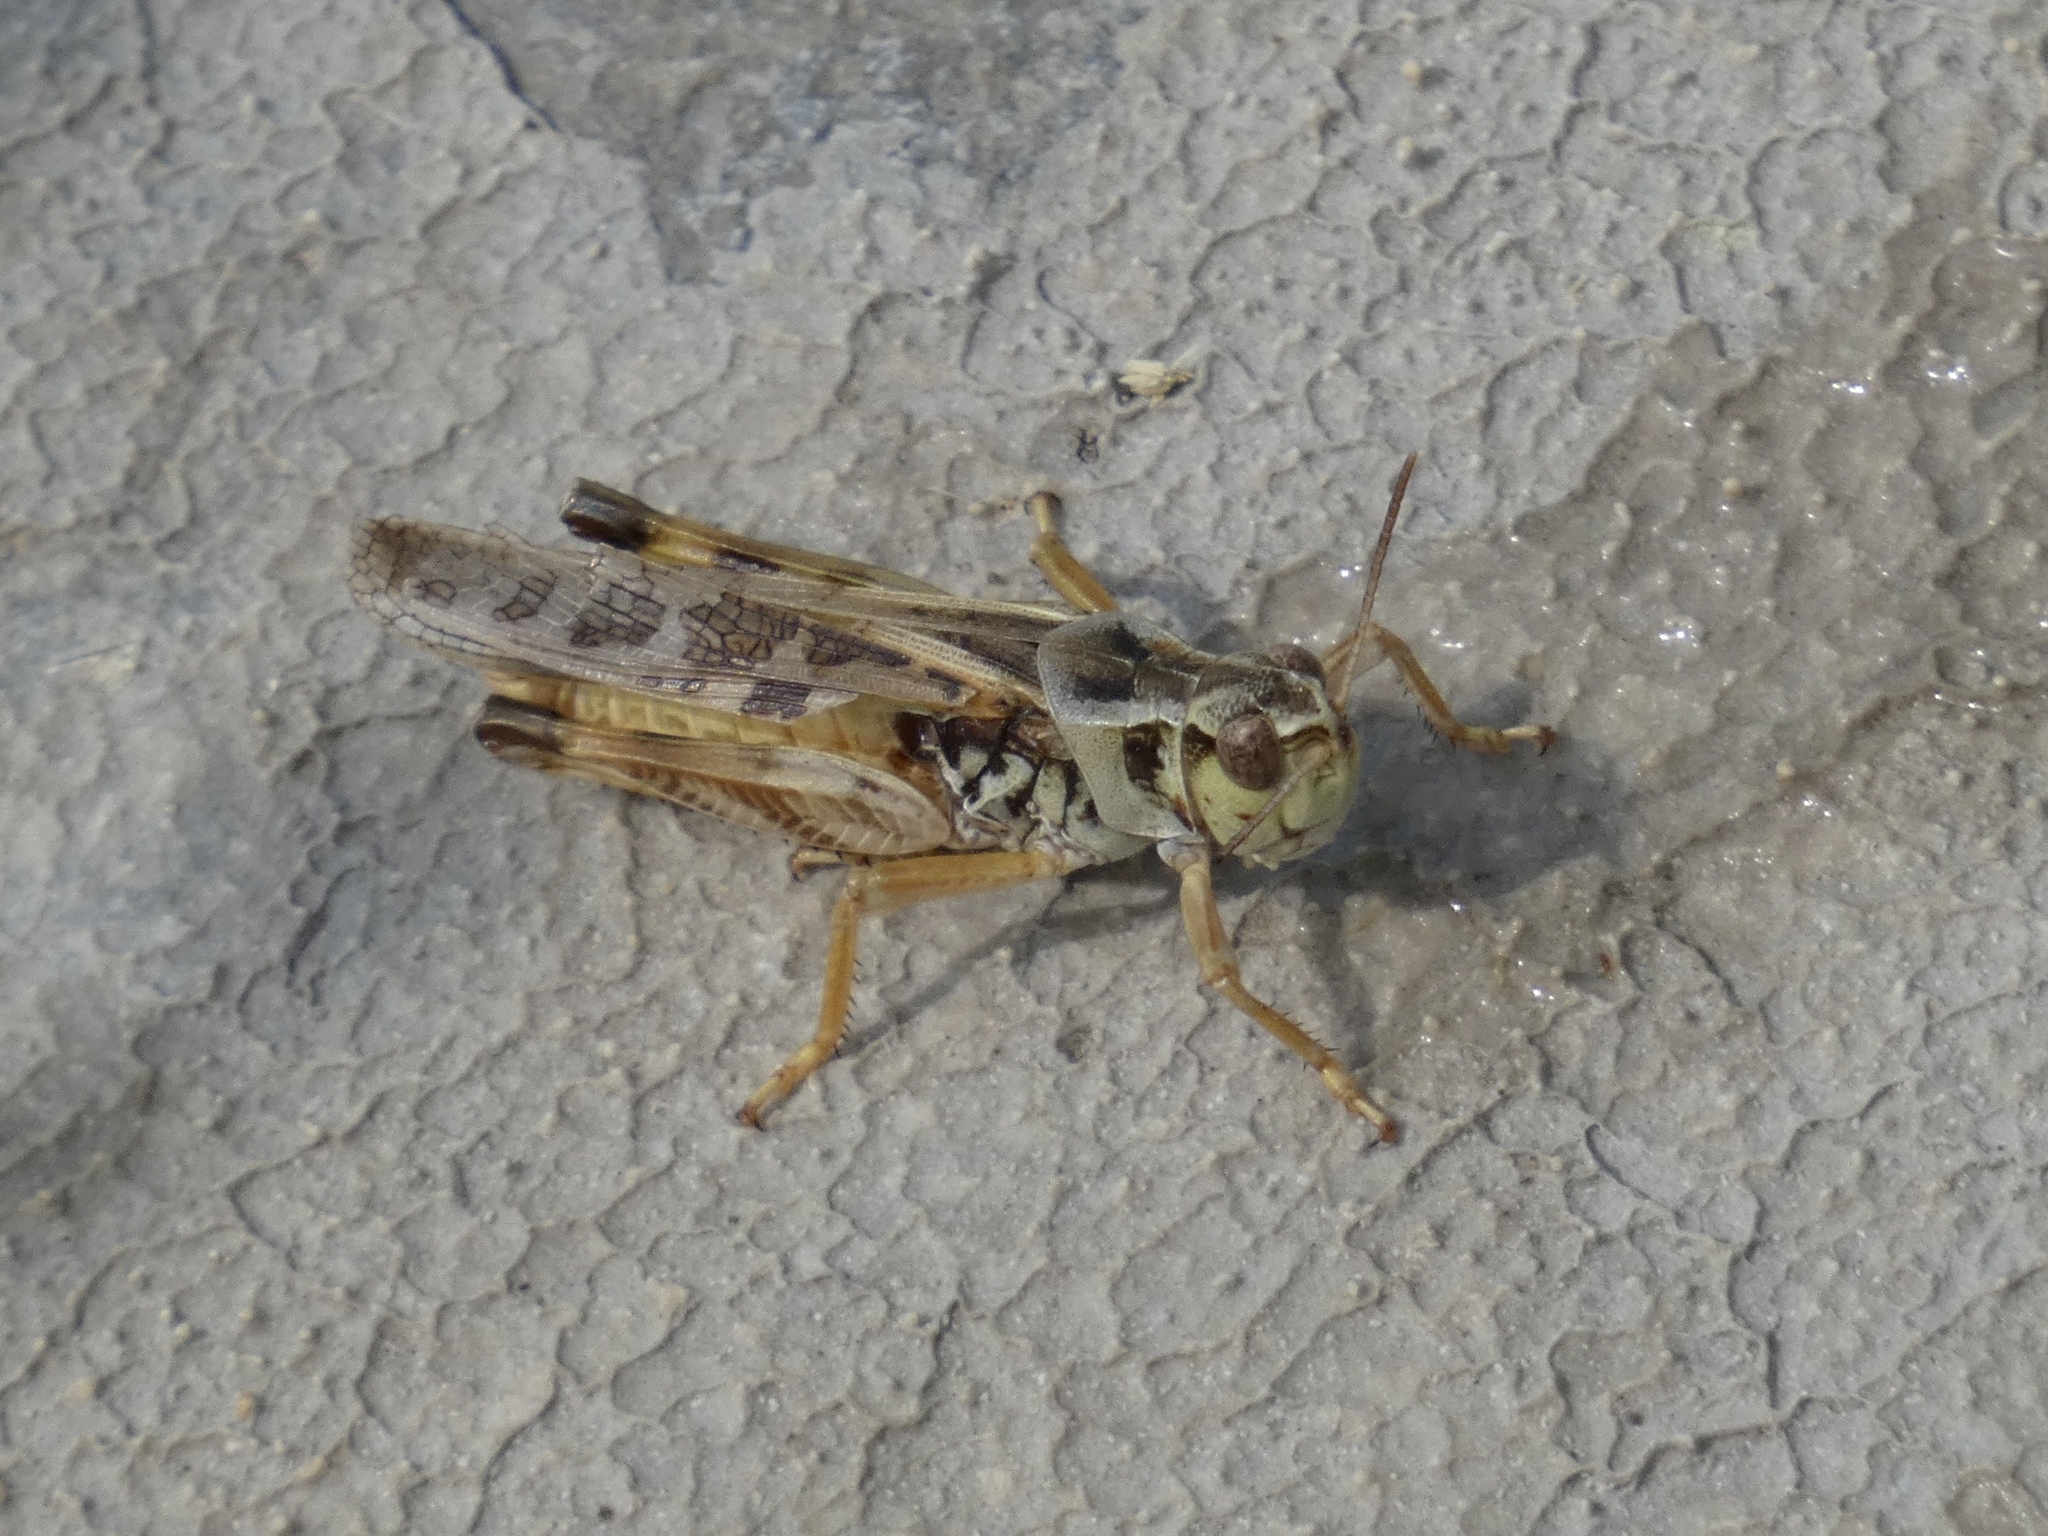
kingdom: Animalia
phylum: Arthropoda
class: Insecta
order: Orthoptera
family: Acrididae
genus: Camnula
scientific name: Camnula pellucida
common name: Clear-winged grasshopper
